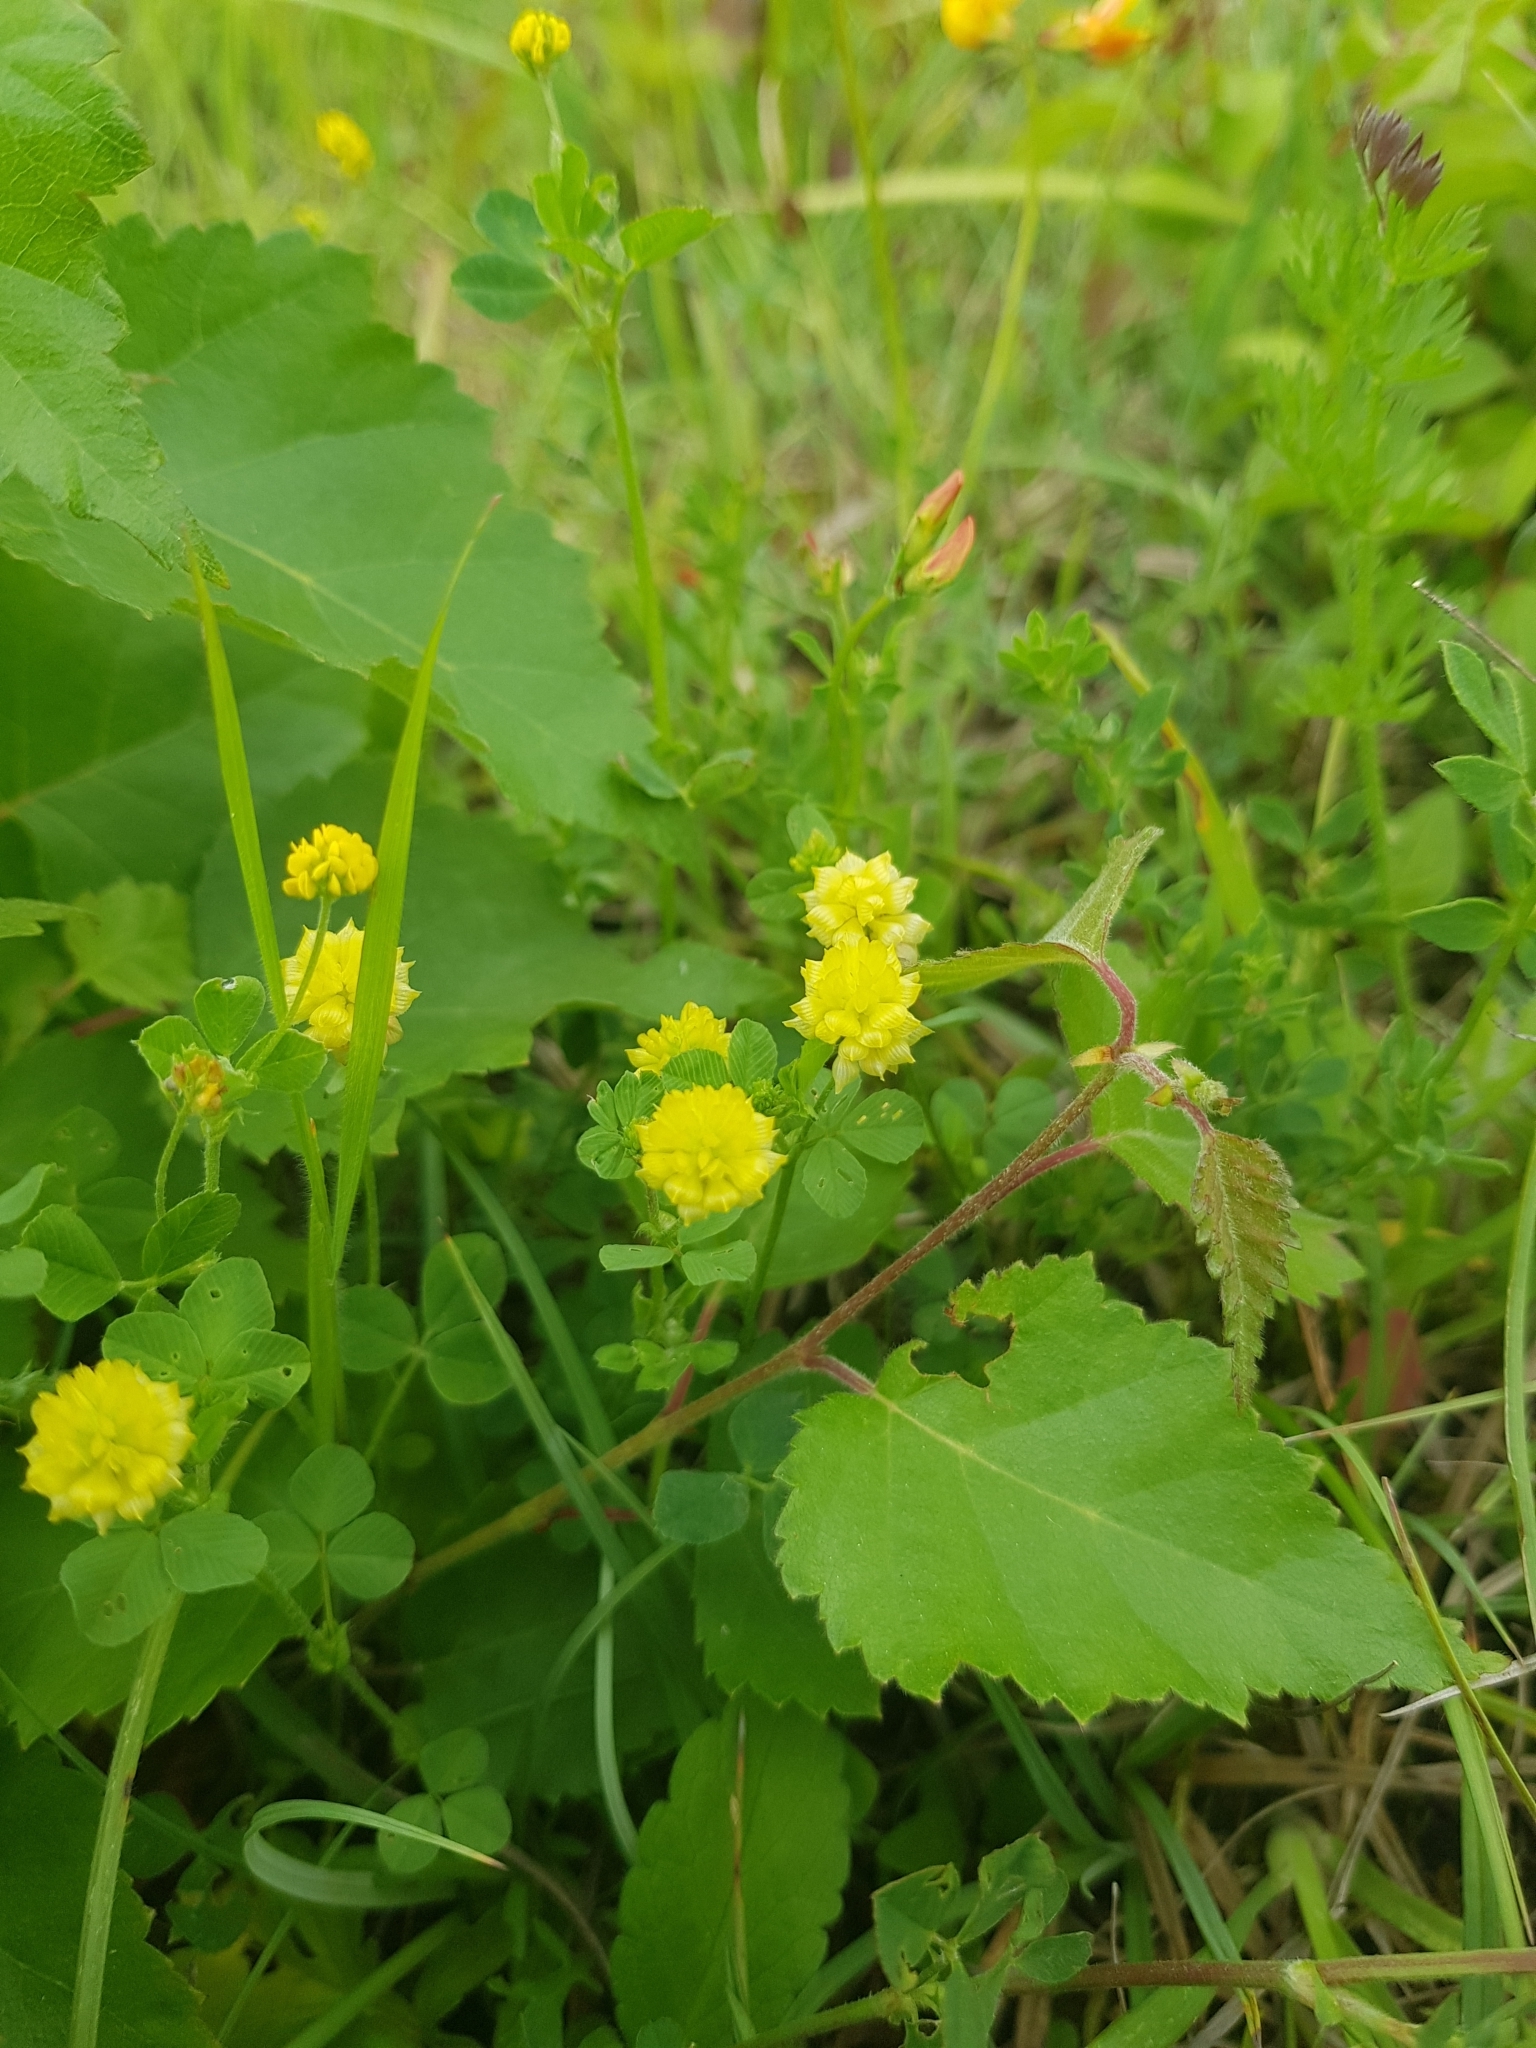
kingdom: Plantae
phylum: Tracheophyta
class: Magnoliopsida
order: Fabales
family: Fabaceae
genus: Trifolium
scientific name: Trifolium campestre
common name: Field clover
